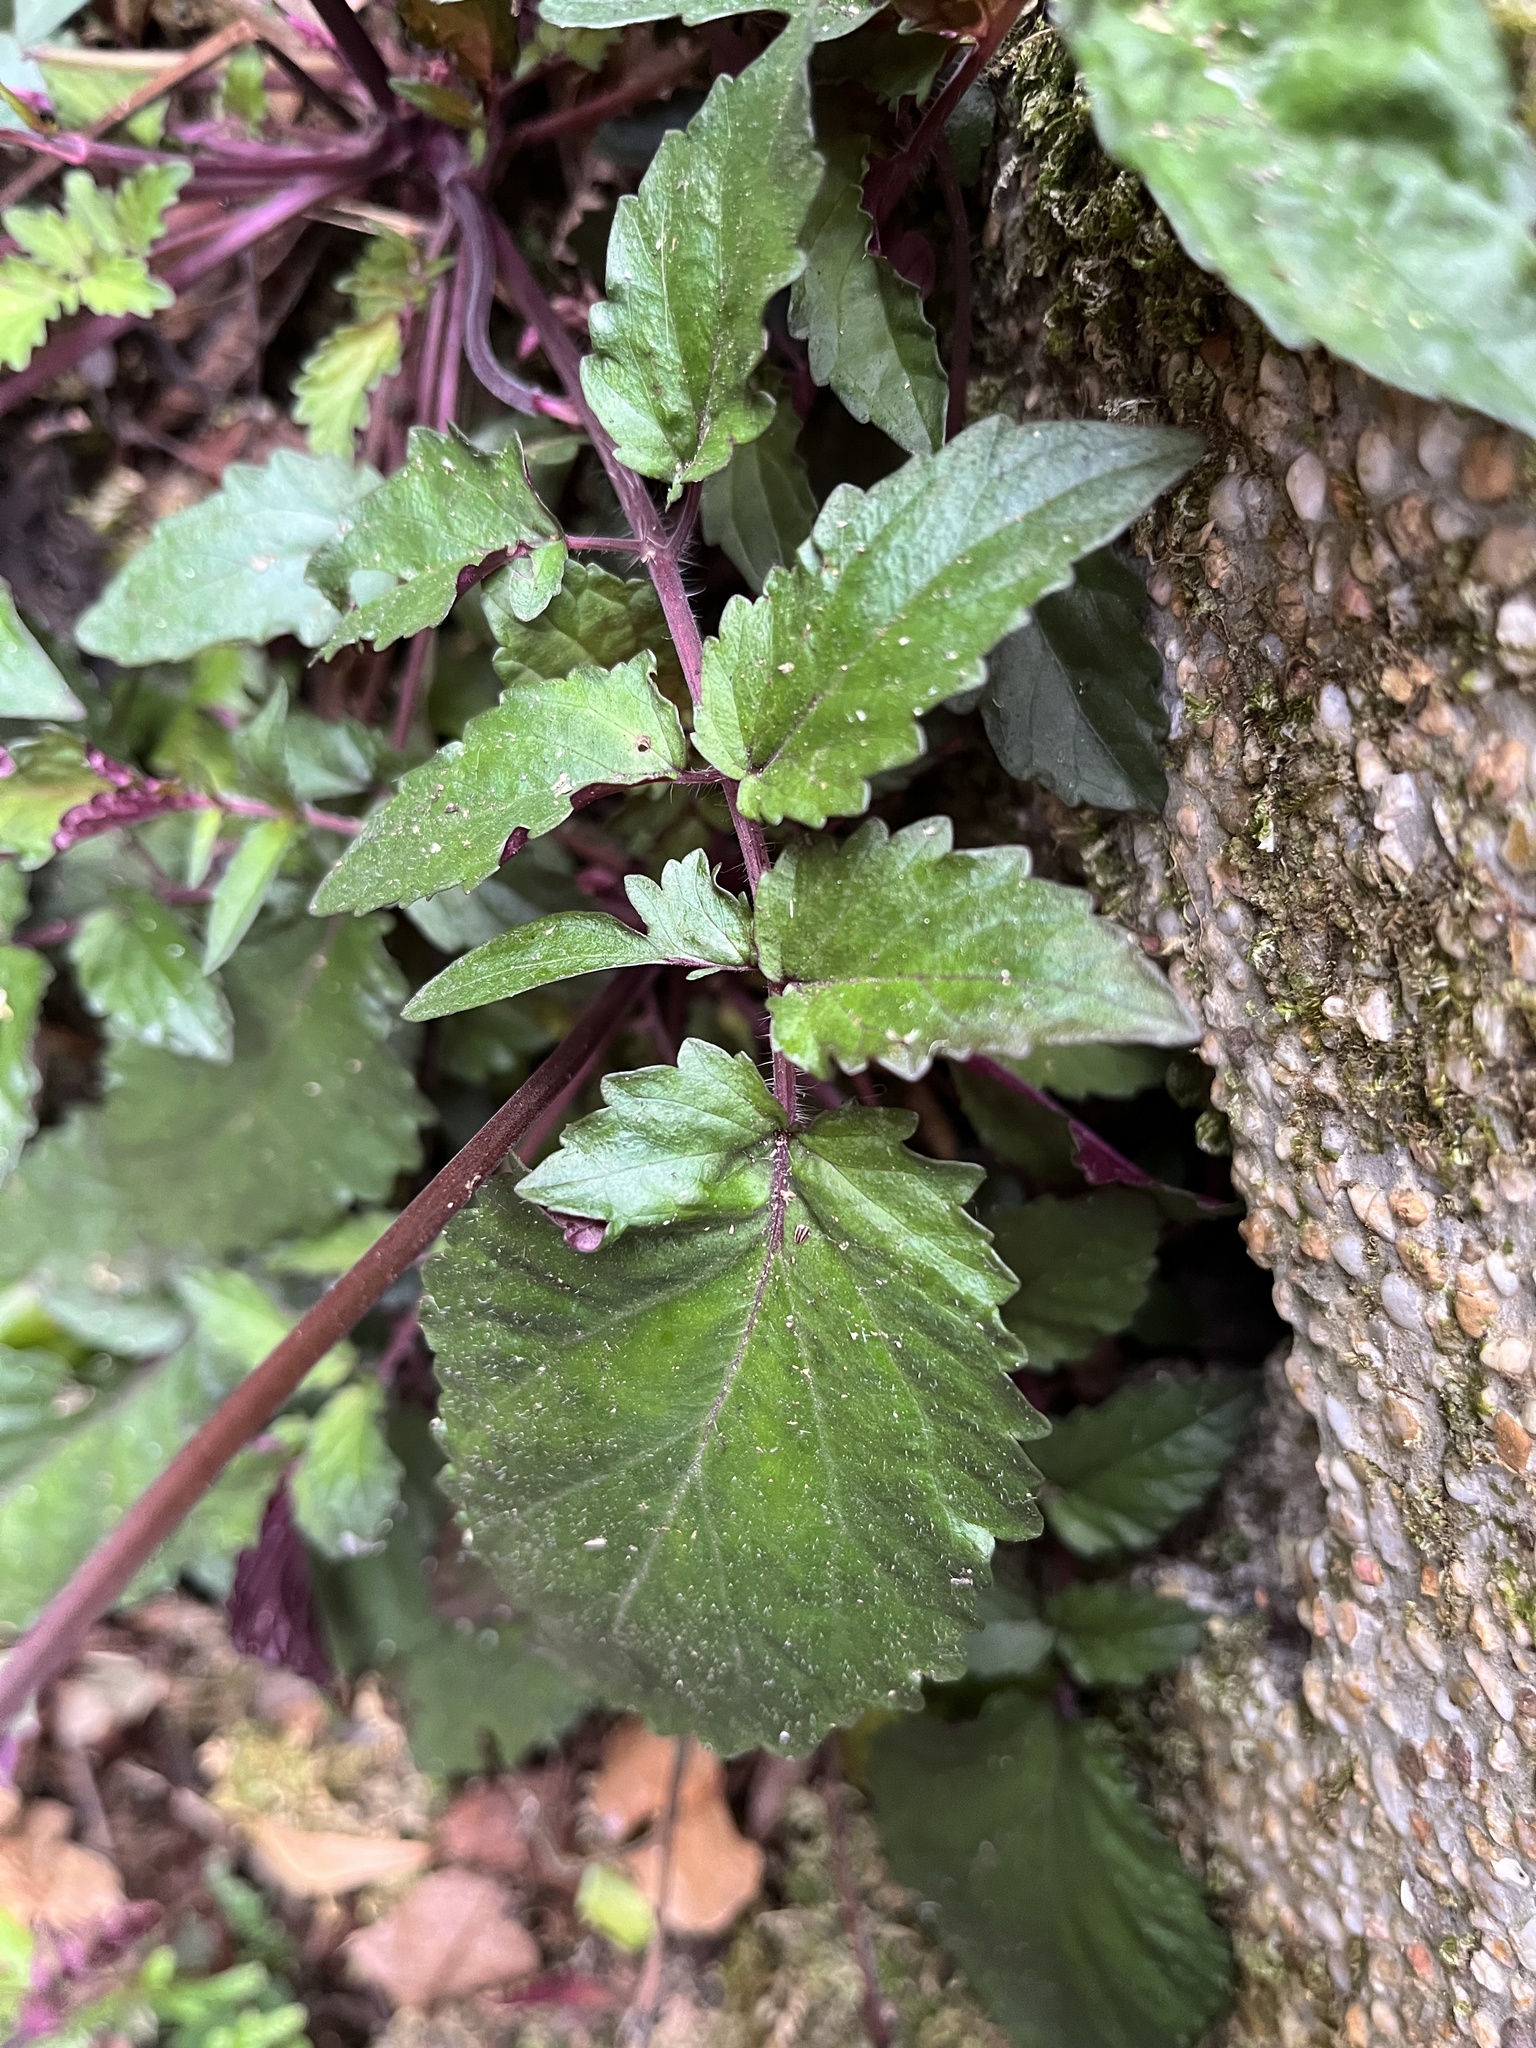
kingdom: Plantae
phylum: Tracheophyta
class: Magnoliopsida
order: Lamiales
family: Lamiaceae
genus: Salvia
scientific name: Salvia hayatae
